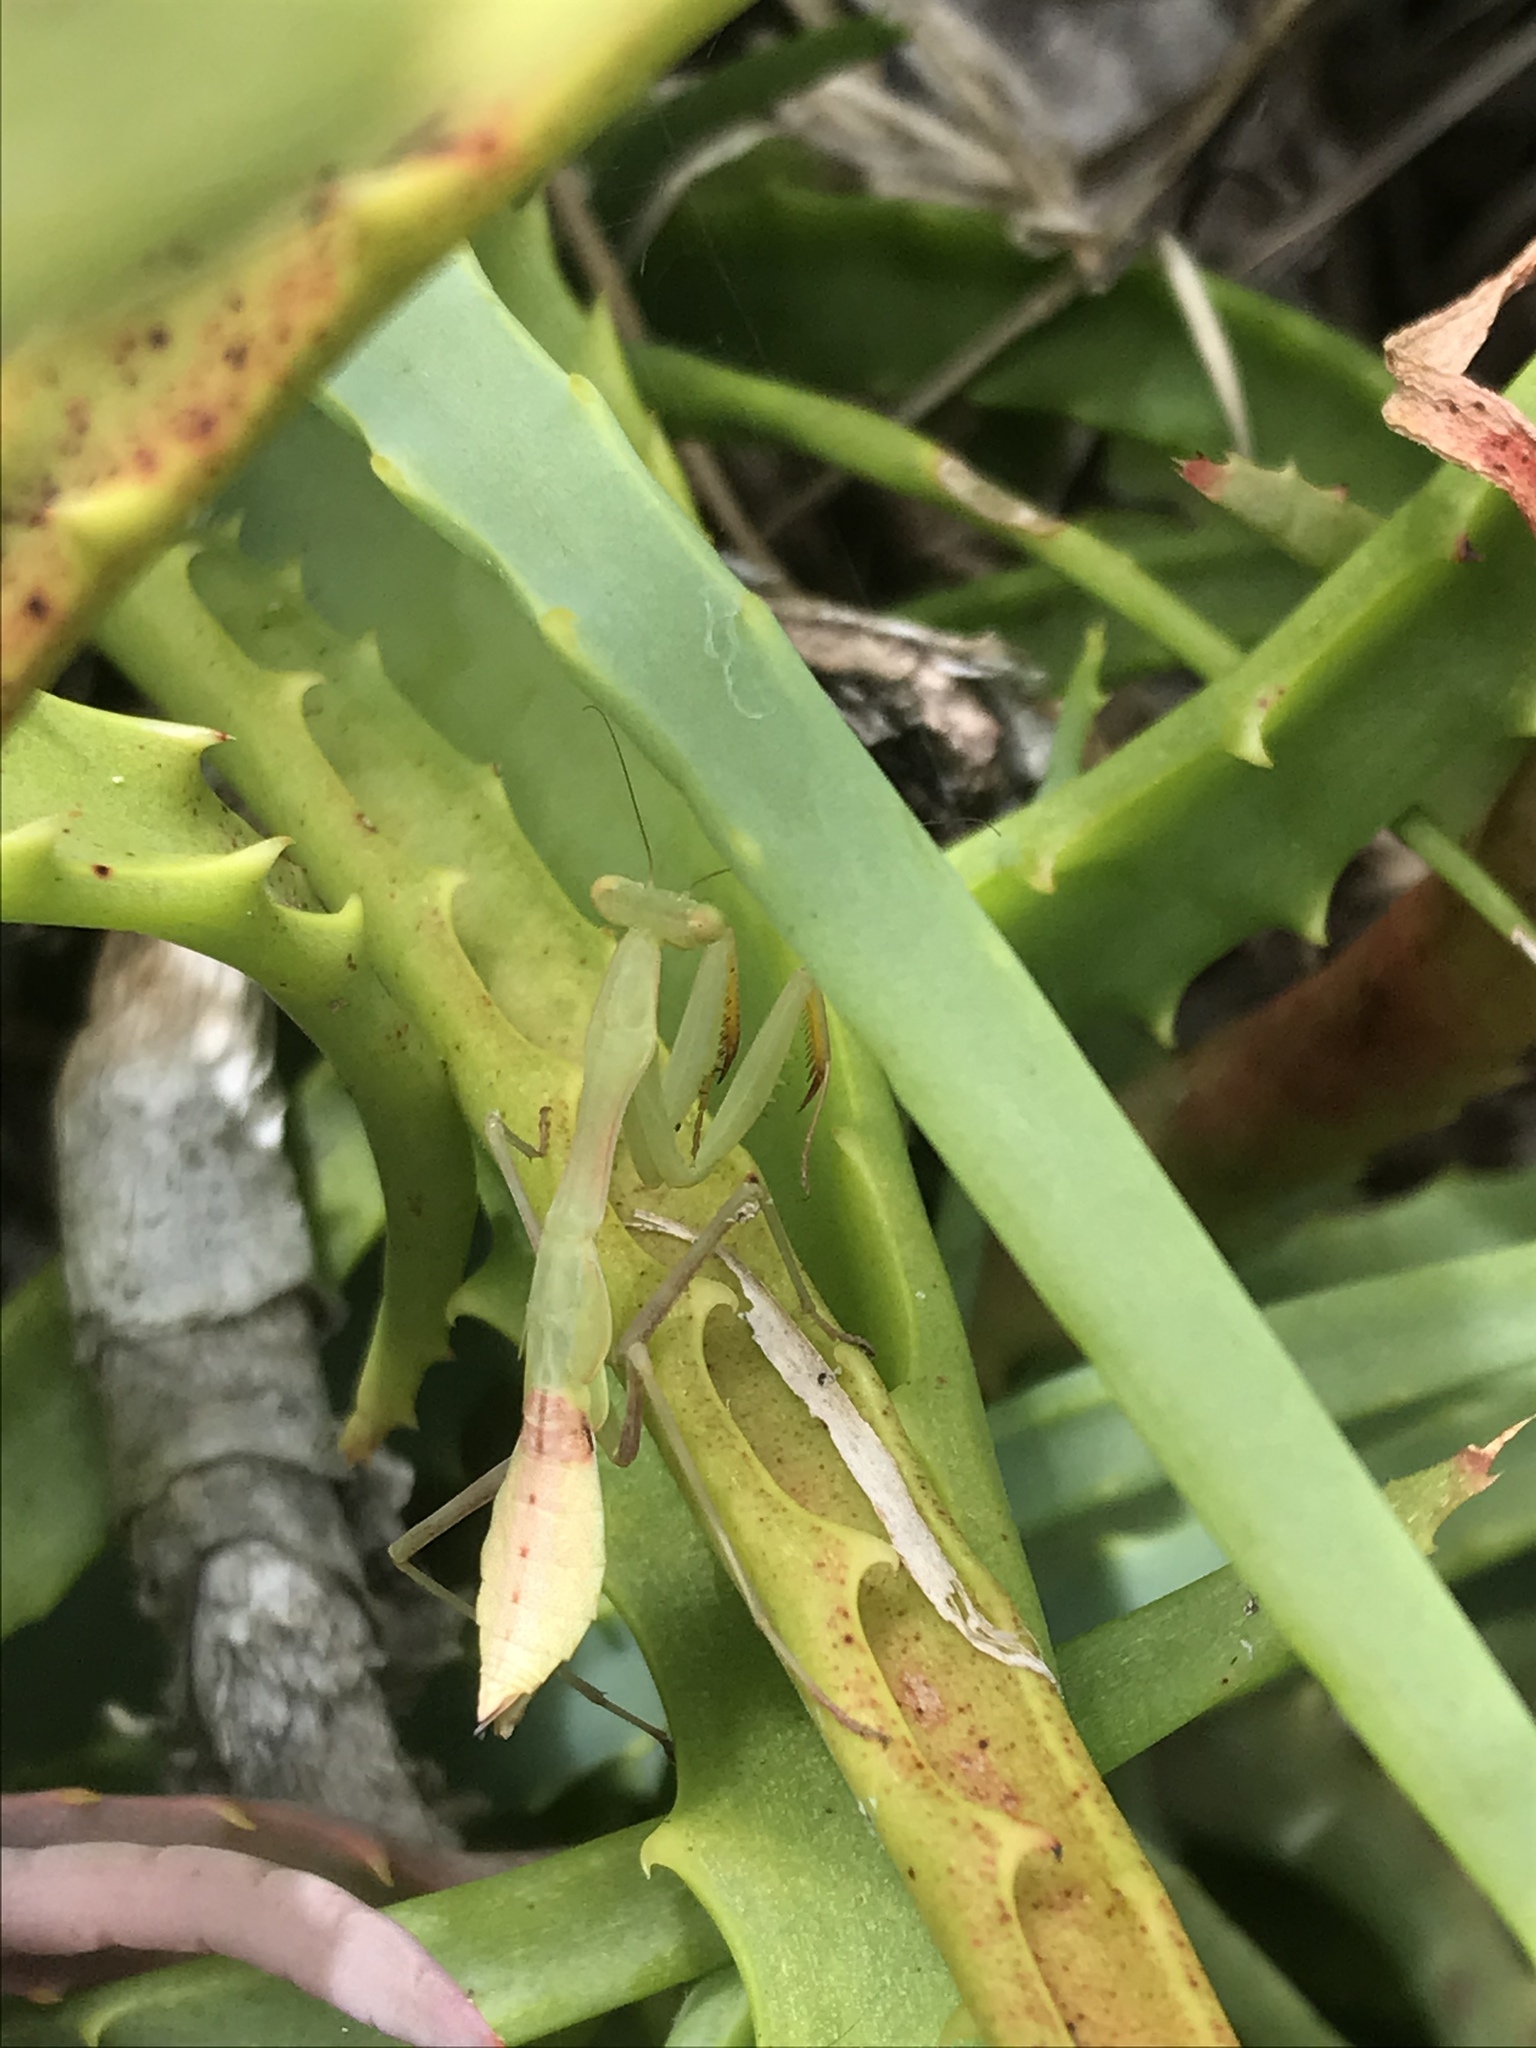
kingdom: Animalia
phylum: Arthropoda
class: Insecta
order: Mantodea
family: Miomantidae
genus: Miomantis
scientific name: Miomantis caffra
